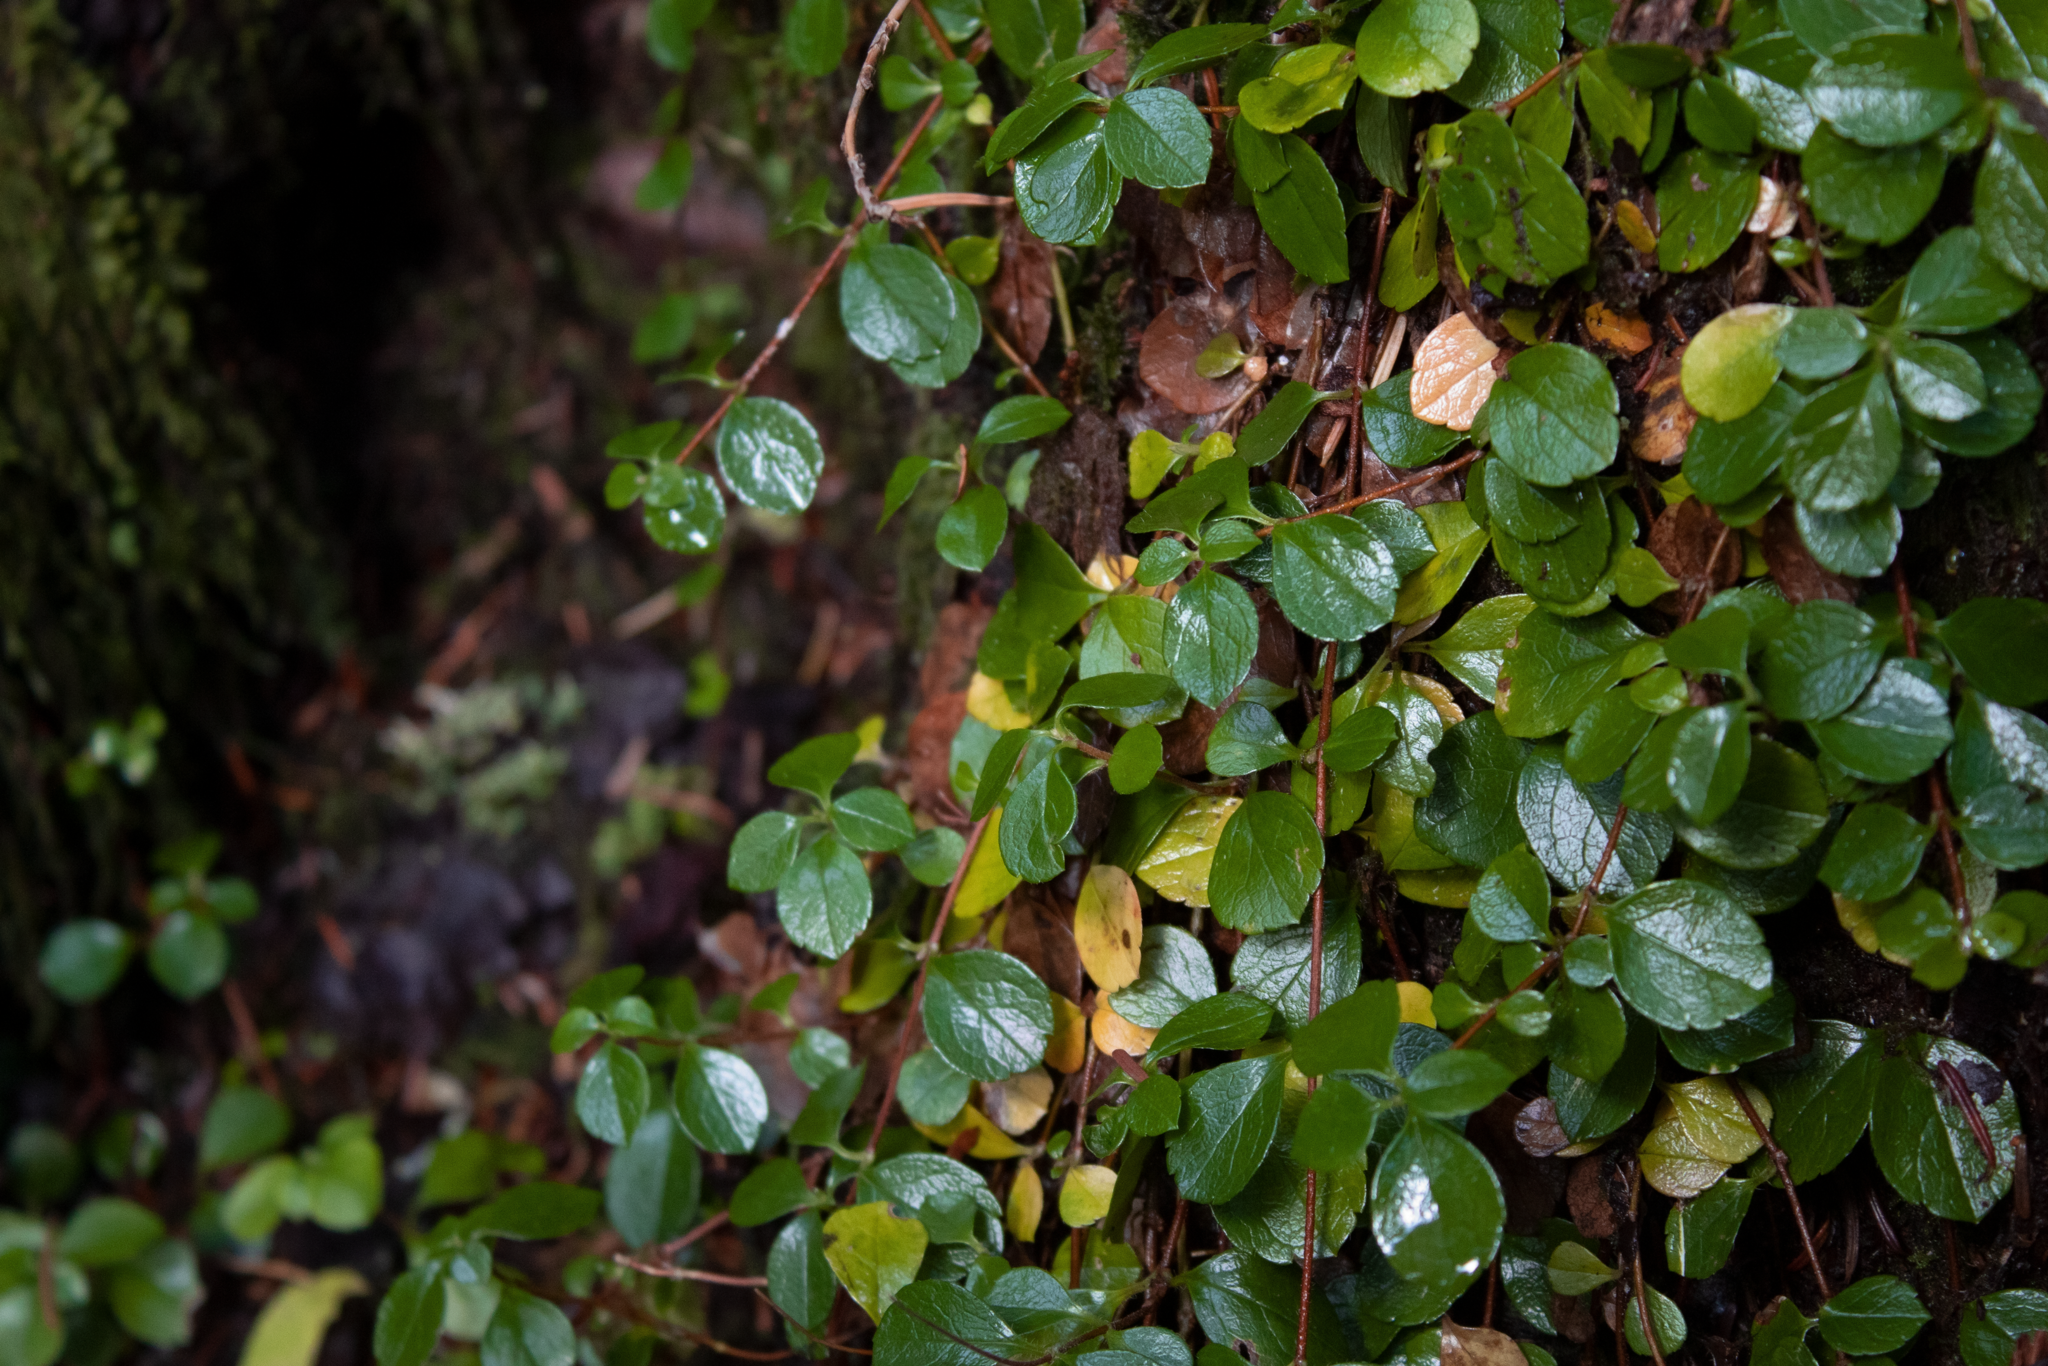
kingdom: Plantae
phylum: Tracheophyta
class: Magnoliopsida
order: Dipsacales
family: Caprifoliaceae
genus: Linnaea
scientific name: Linnaea borealis
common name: Twinflower
